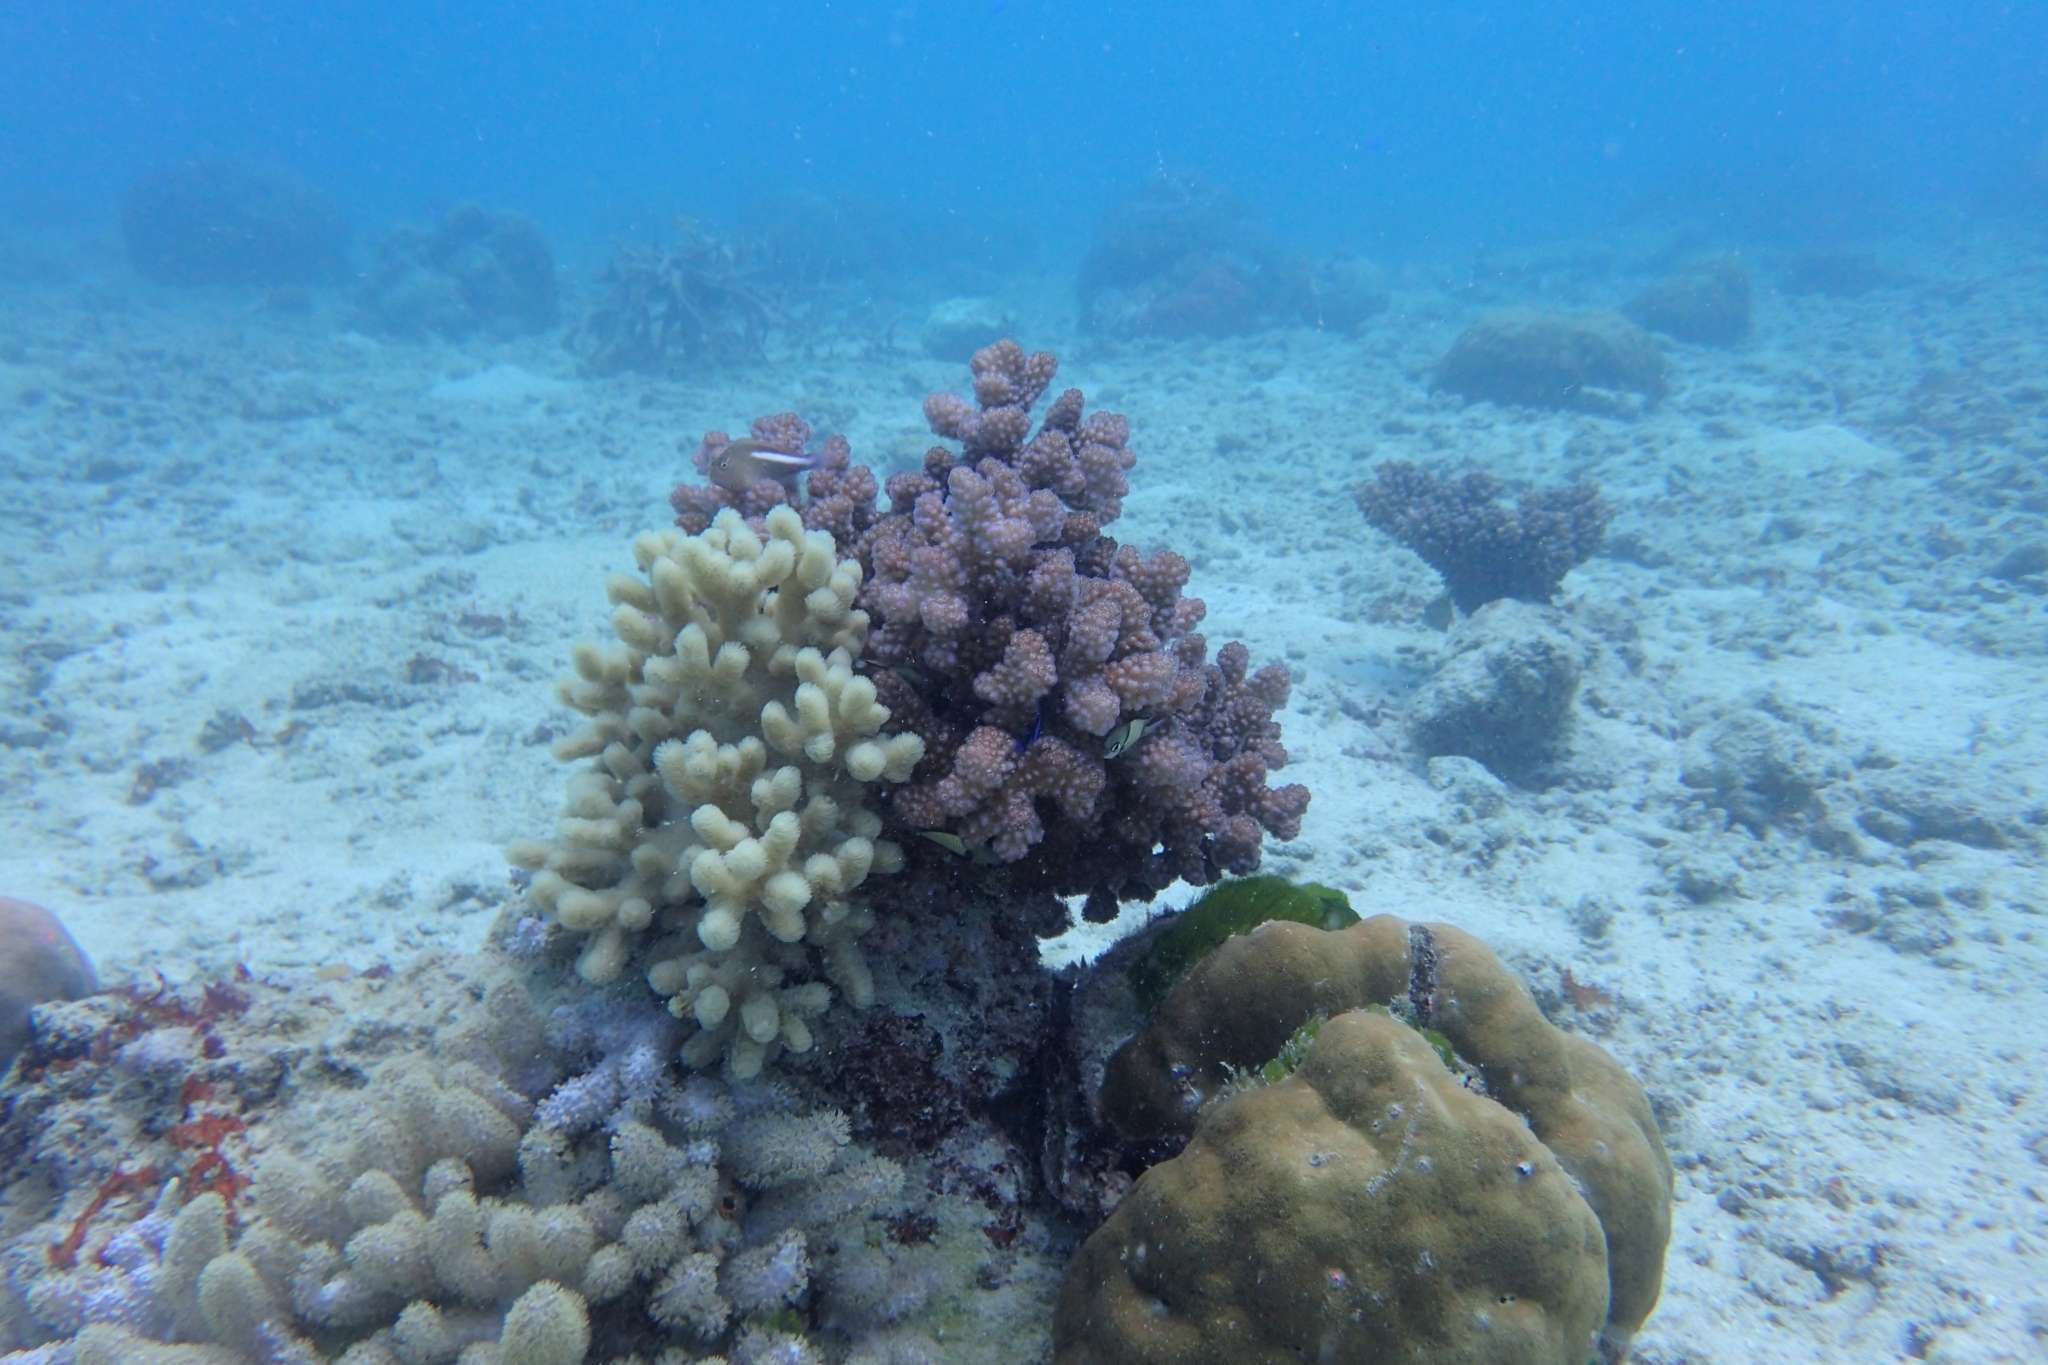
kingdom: Animalia
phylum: Cnidaria
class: Anthozoa
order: Scleractinia
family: Pocilloporidae
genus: Pocillopora
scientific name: Pocillopora verrucosa
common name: Cauliflower coral
